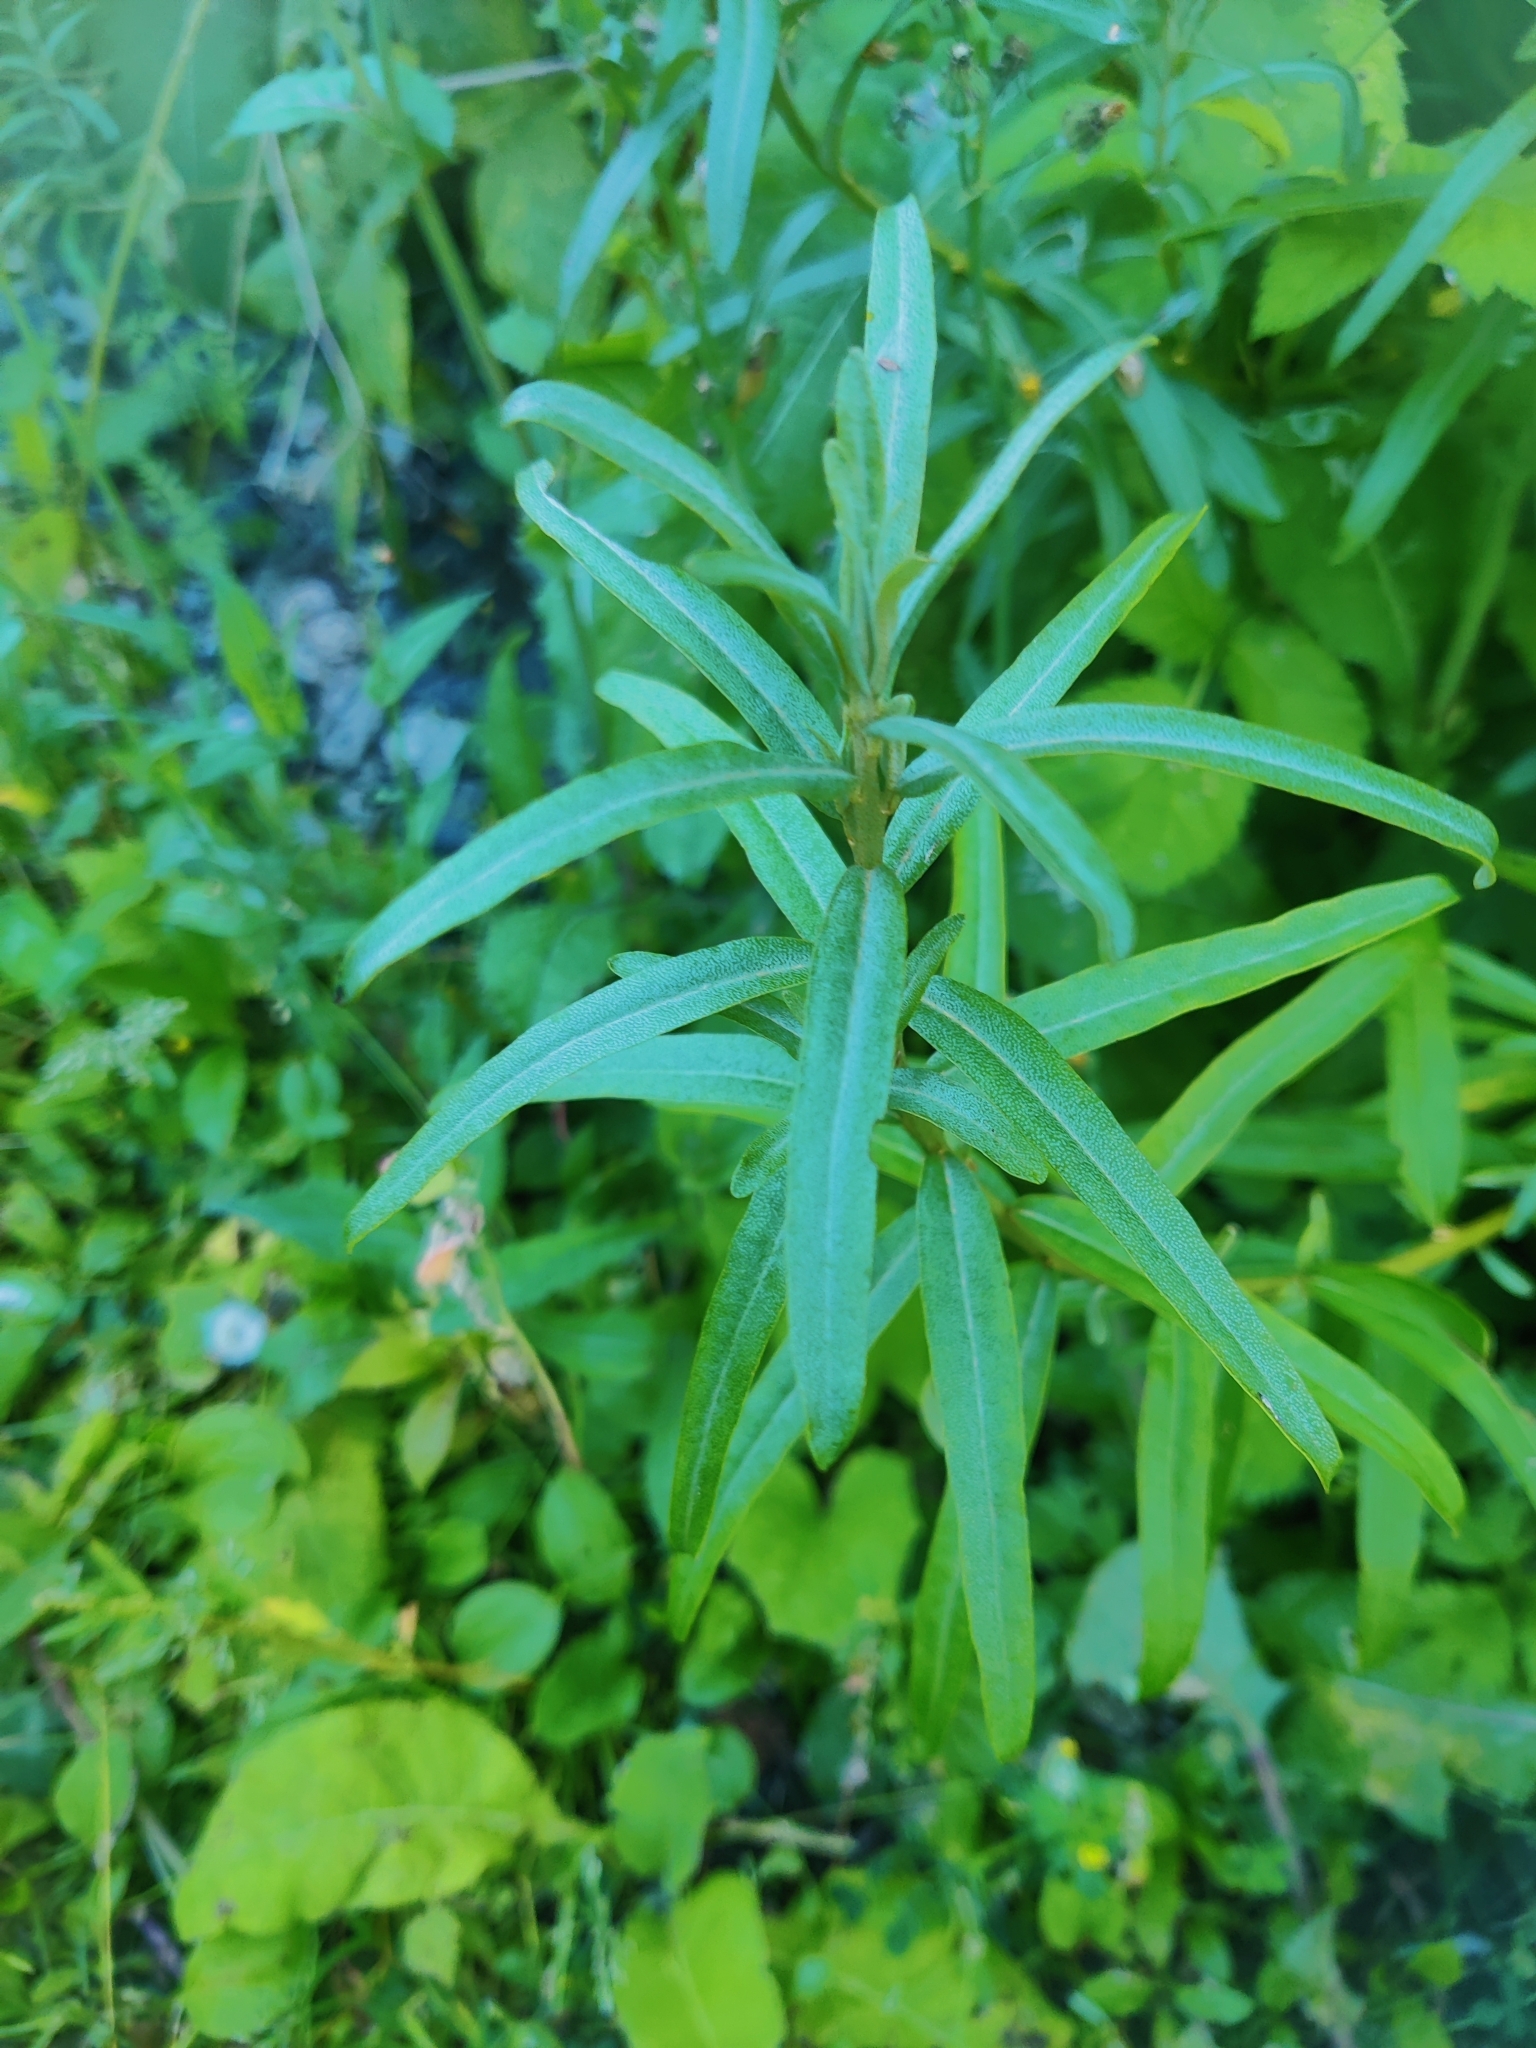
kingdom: Plantae
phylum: Tracheophyta
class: Magnoliopsida
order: Rosales
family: Elaeagnaceae
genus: Hippophae
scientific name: Hippophae rhamnoides
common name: Sea-buckthorn
